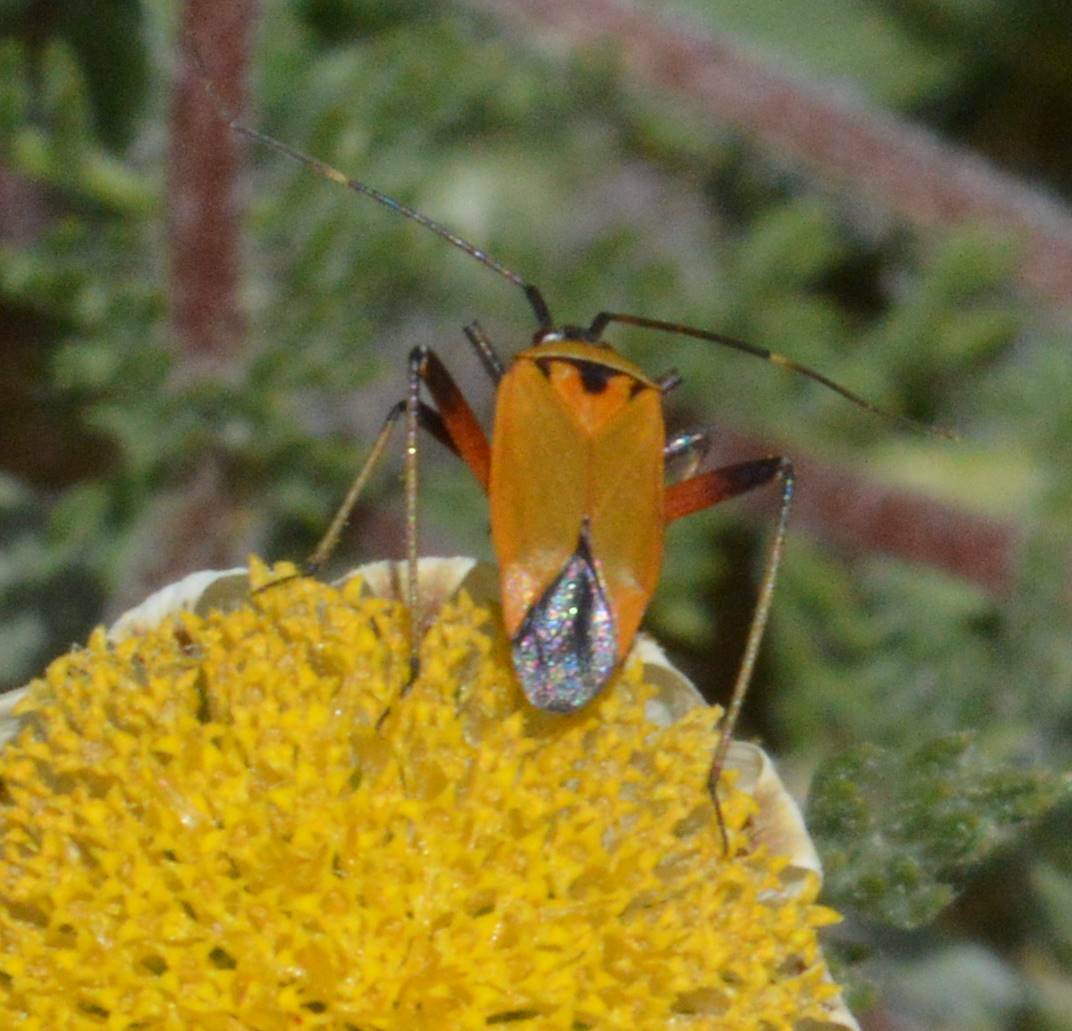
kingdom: Animalia
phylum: Arthropoda
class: Insecta
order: Hemiptera
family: Miridae
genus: Calocoris
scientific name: Calocoris nemoralis
